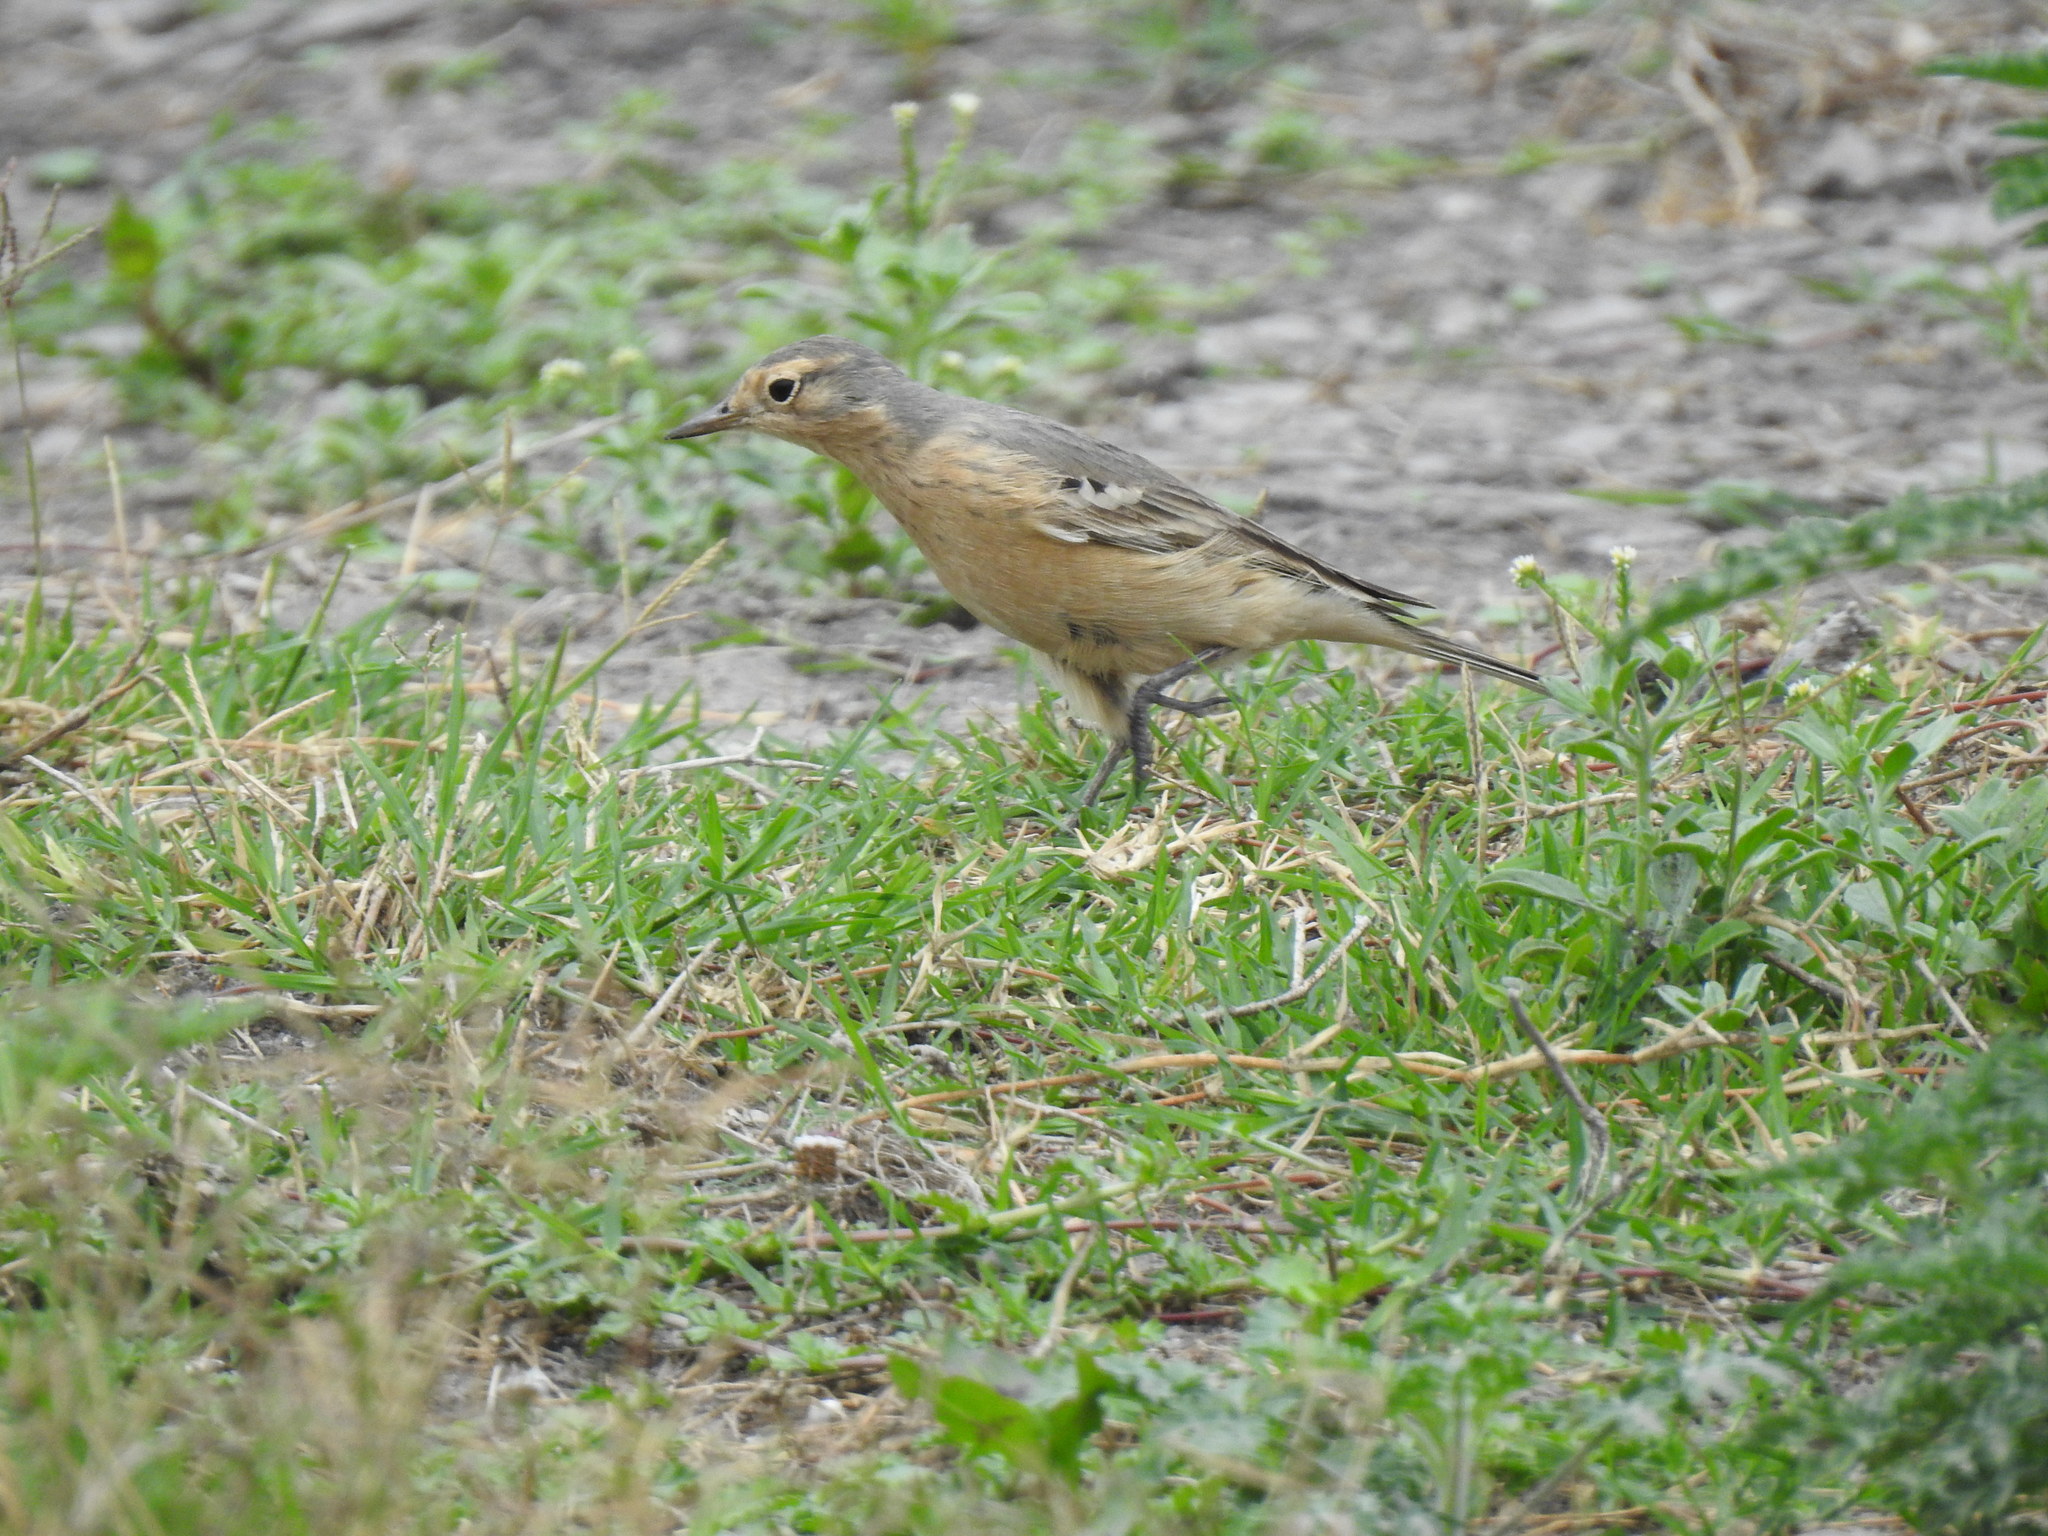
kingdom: Animalia
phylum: Chordata
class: Aves
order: Passeriformes
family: Motacillidae
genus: Anthus
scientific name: Anthus rubescens
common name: Buff-bellied pipit
